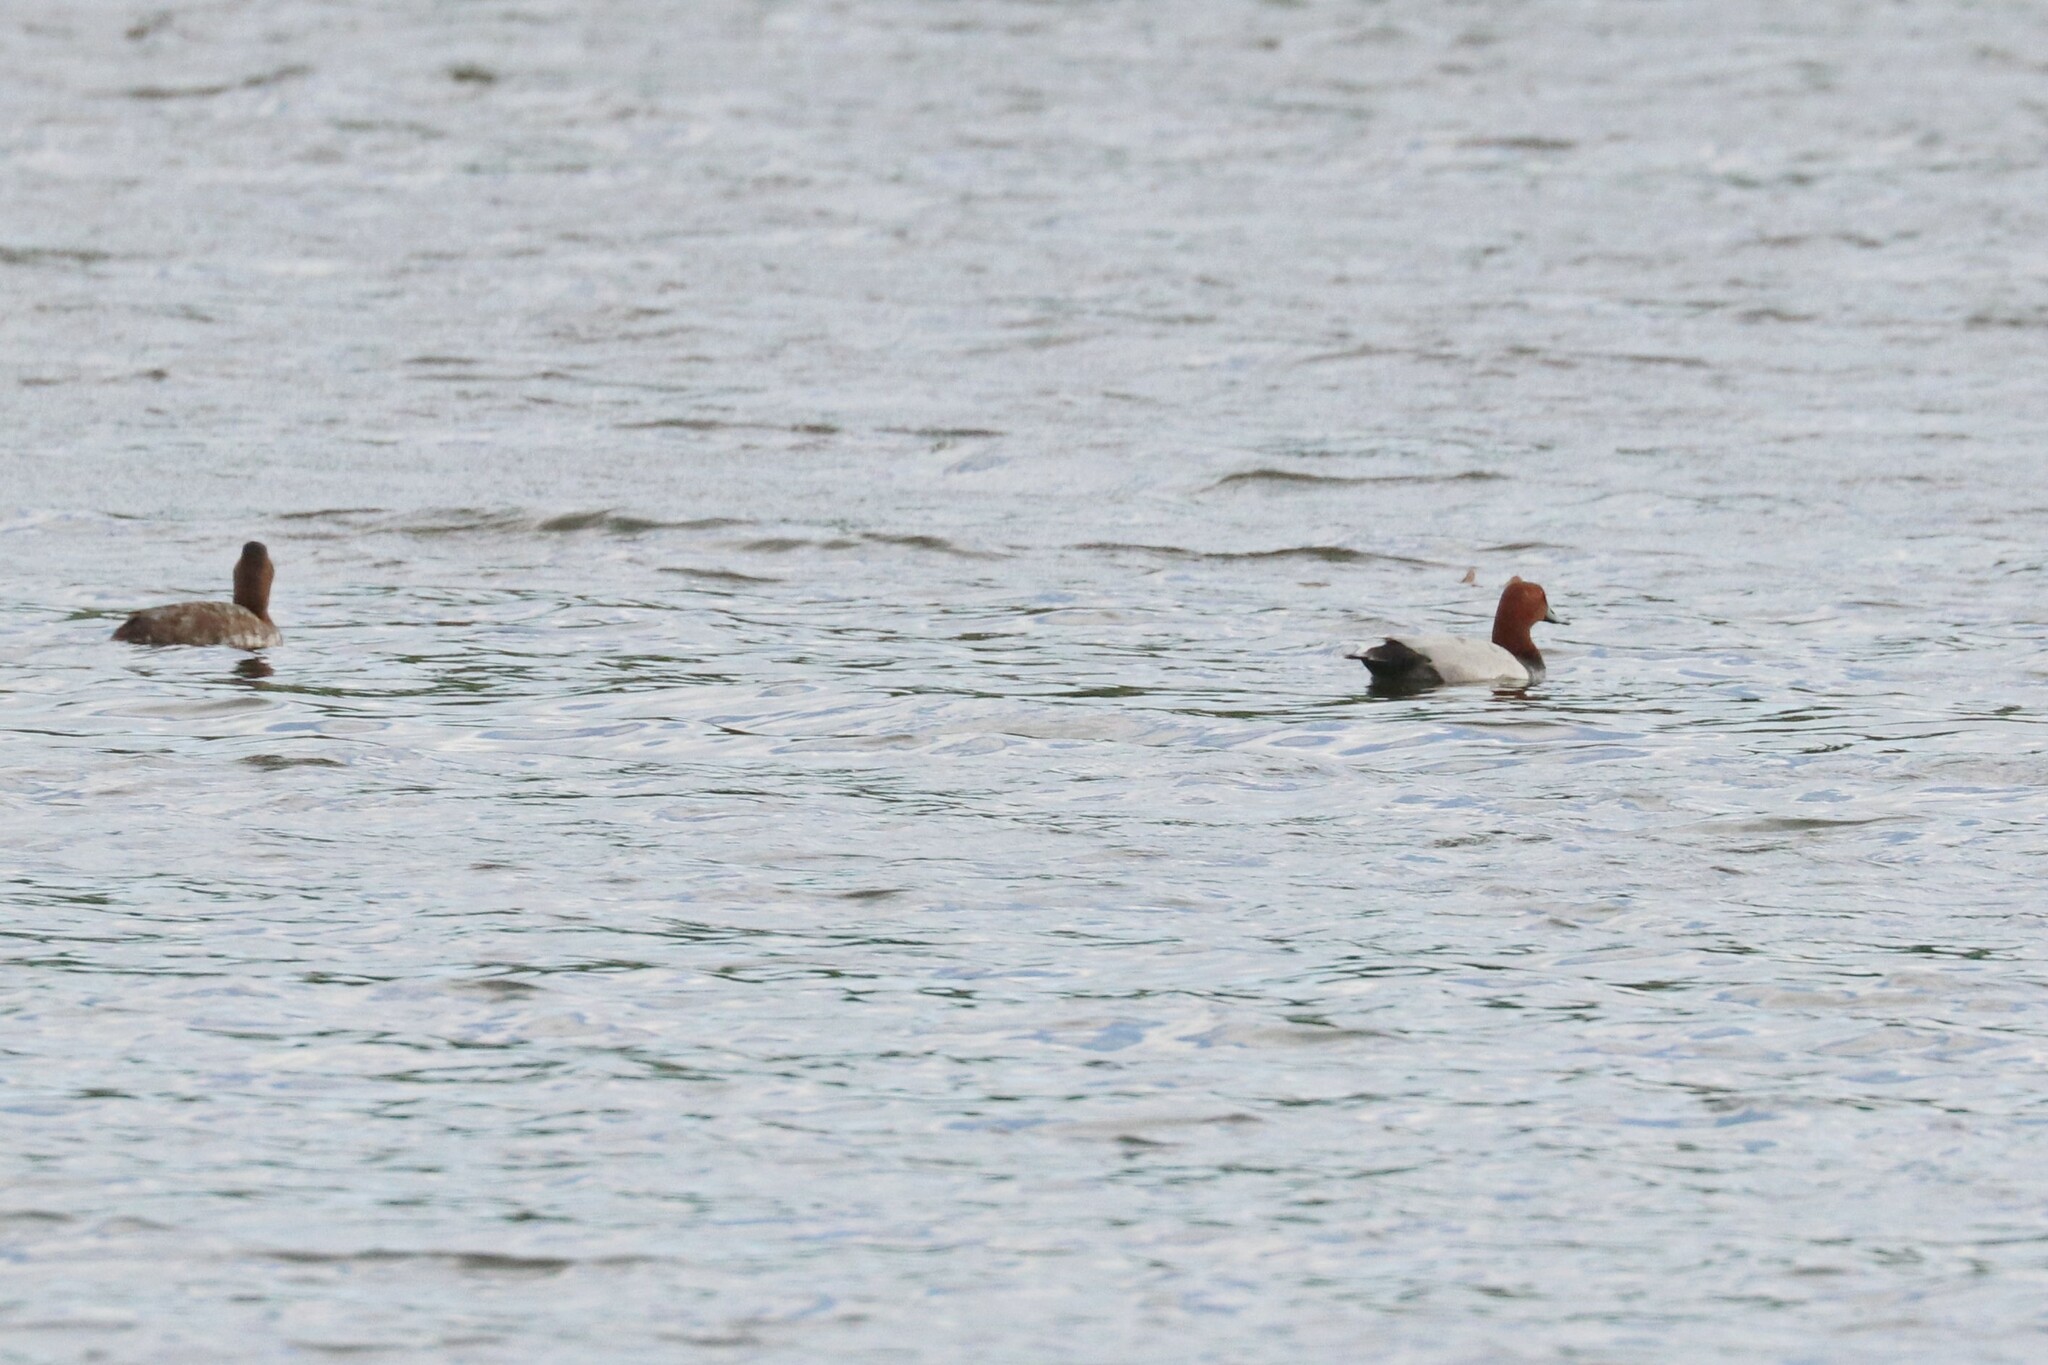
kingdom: Animalia
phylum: Chordata
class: Aves
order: Anseriformes
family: Anatidae
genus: Aythya
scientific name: Aythya ferina
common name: Common pochard
